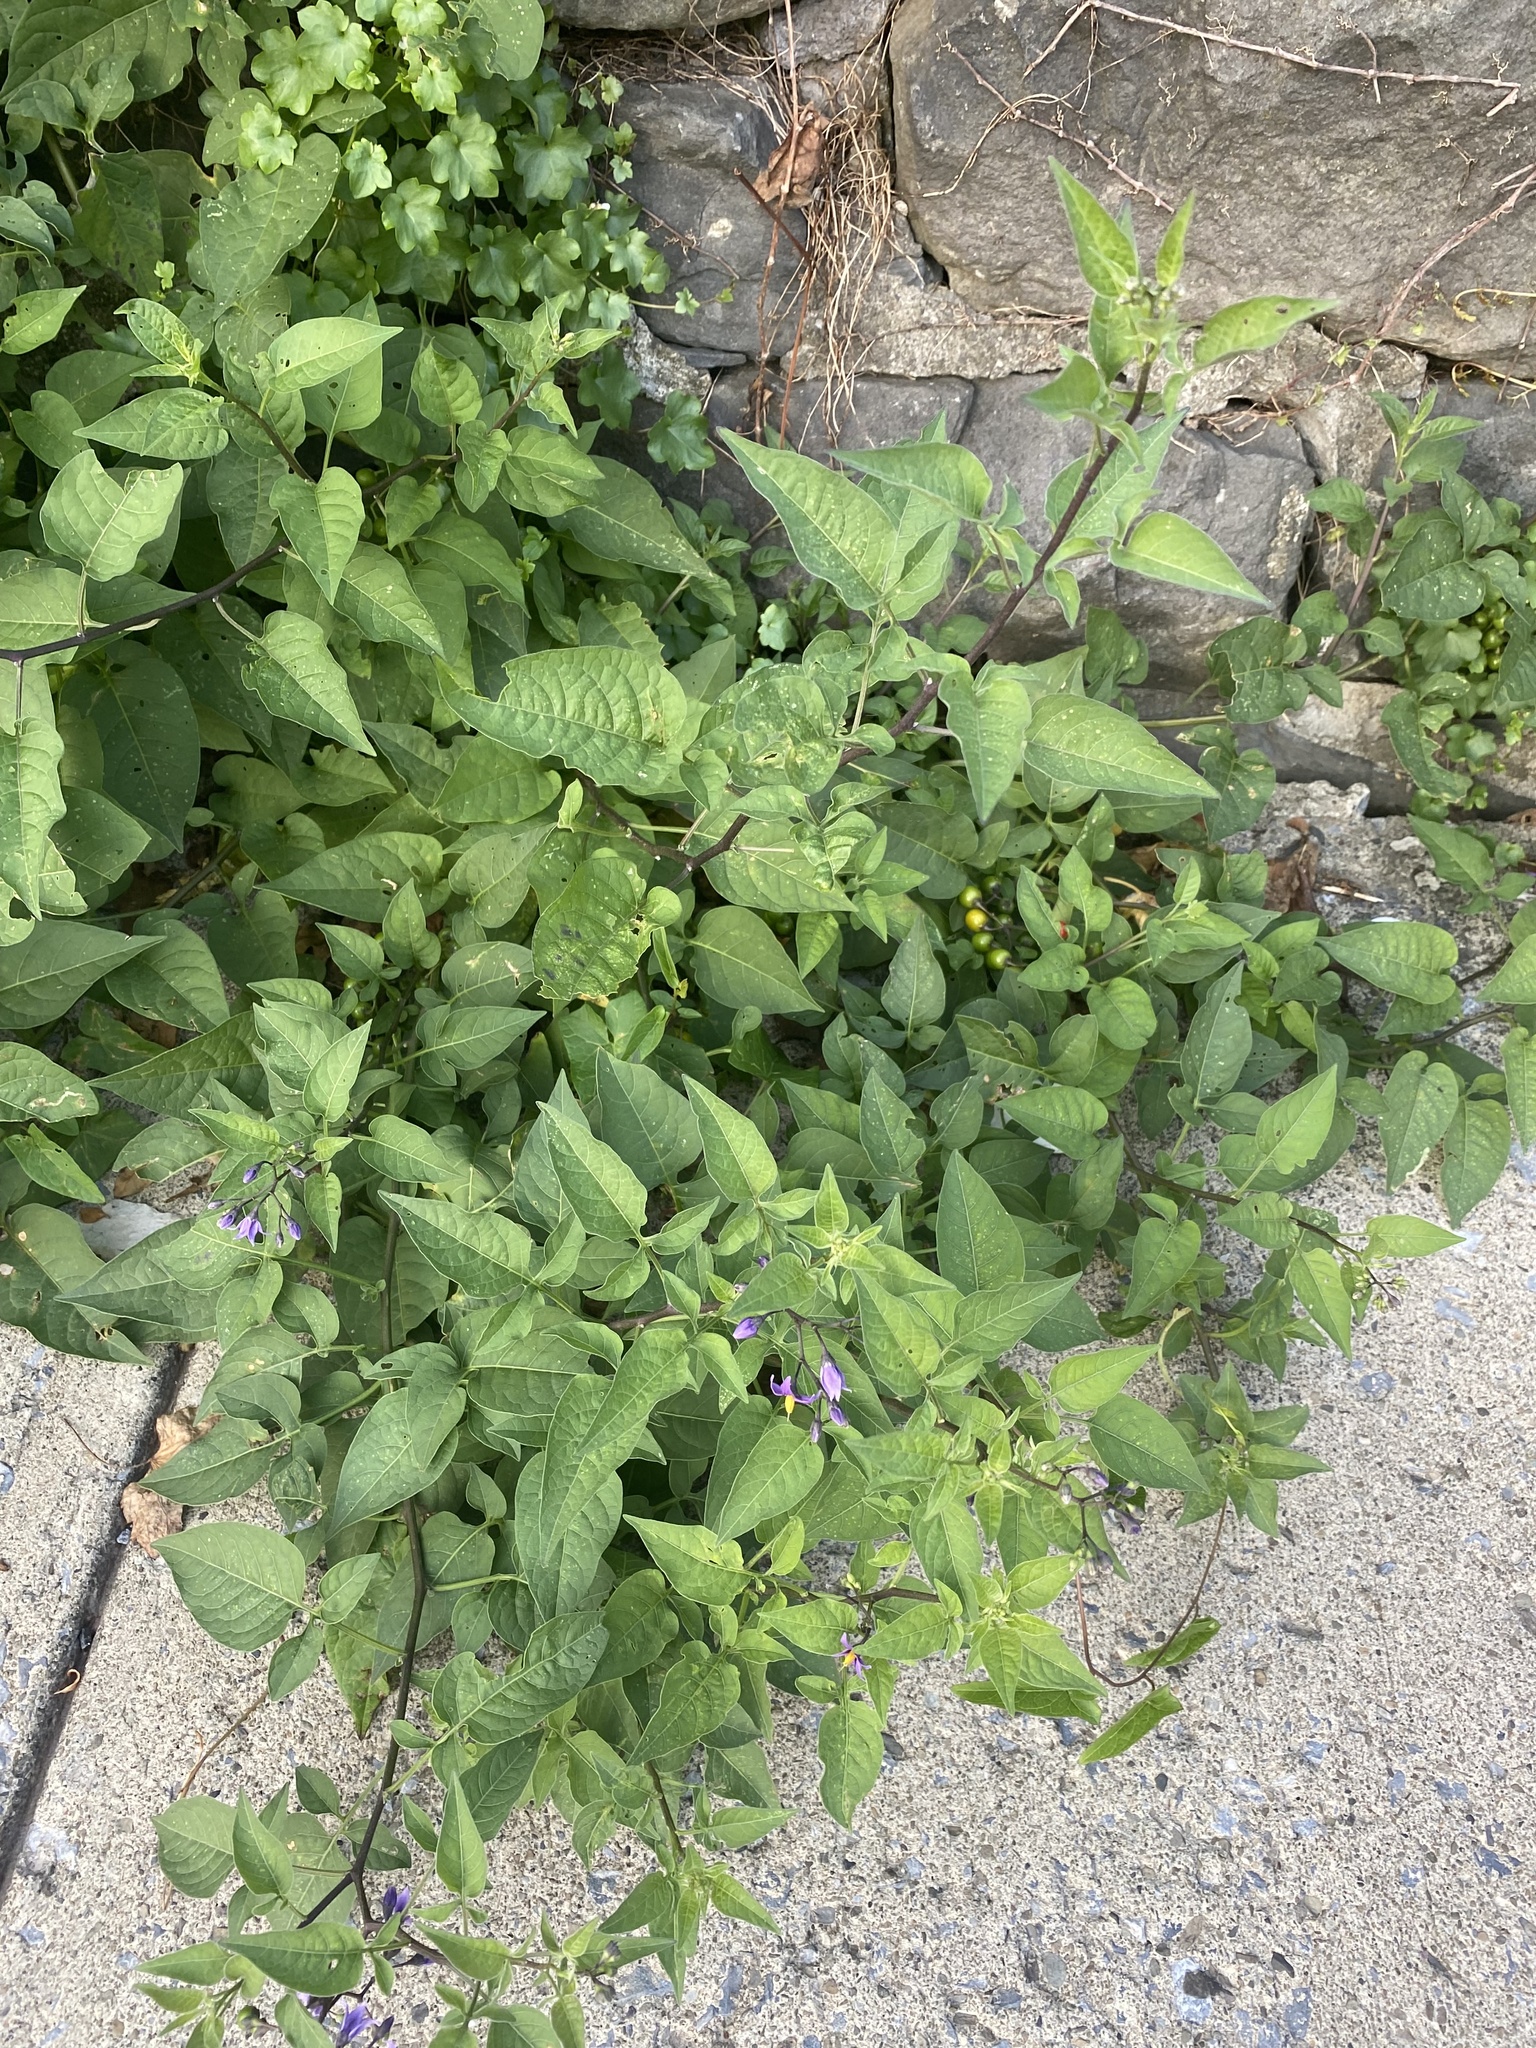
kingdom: Plantae
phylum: Tracheophyta
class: Magnoliopsida
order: Solanales
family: Solanaceae
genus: Solanum
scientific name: Solanum dulcamara
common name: Climbing nightshade
